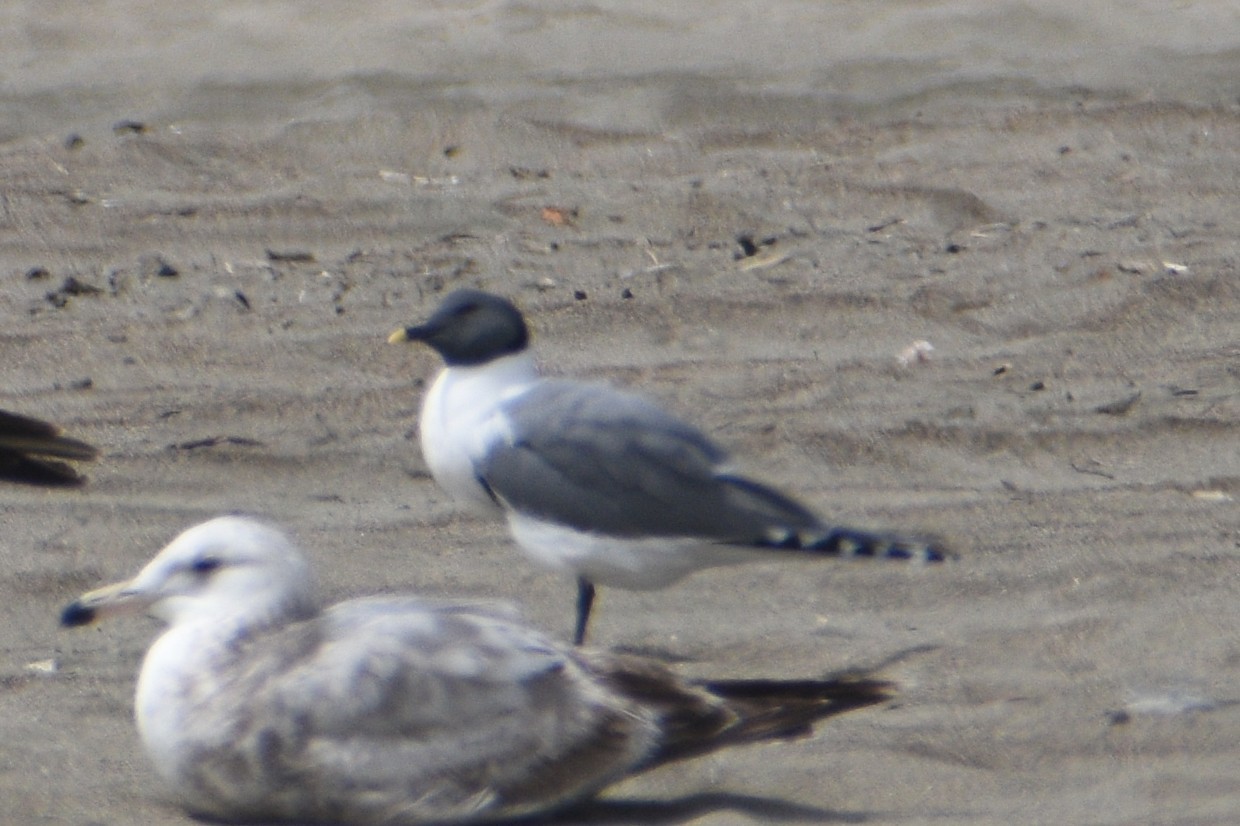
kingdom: Animalia
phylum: Chordata
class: Aves
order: Charadriiformes
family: Laridae
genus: Xema
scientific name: Xema sabini
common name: Sabine's gull
